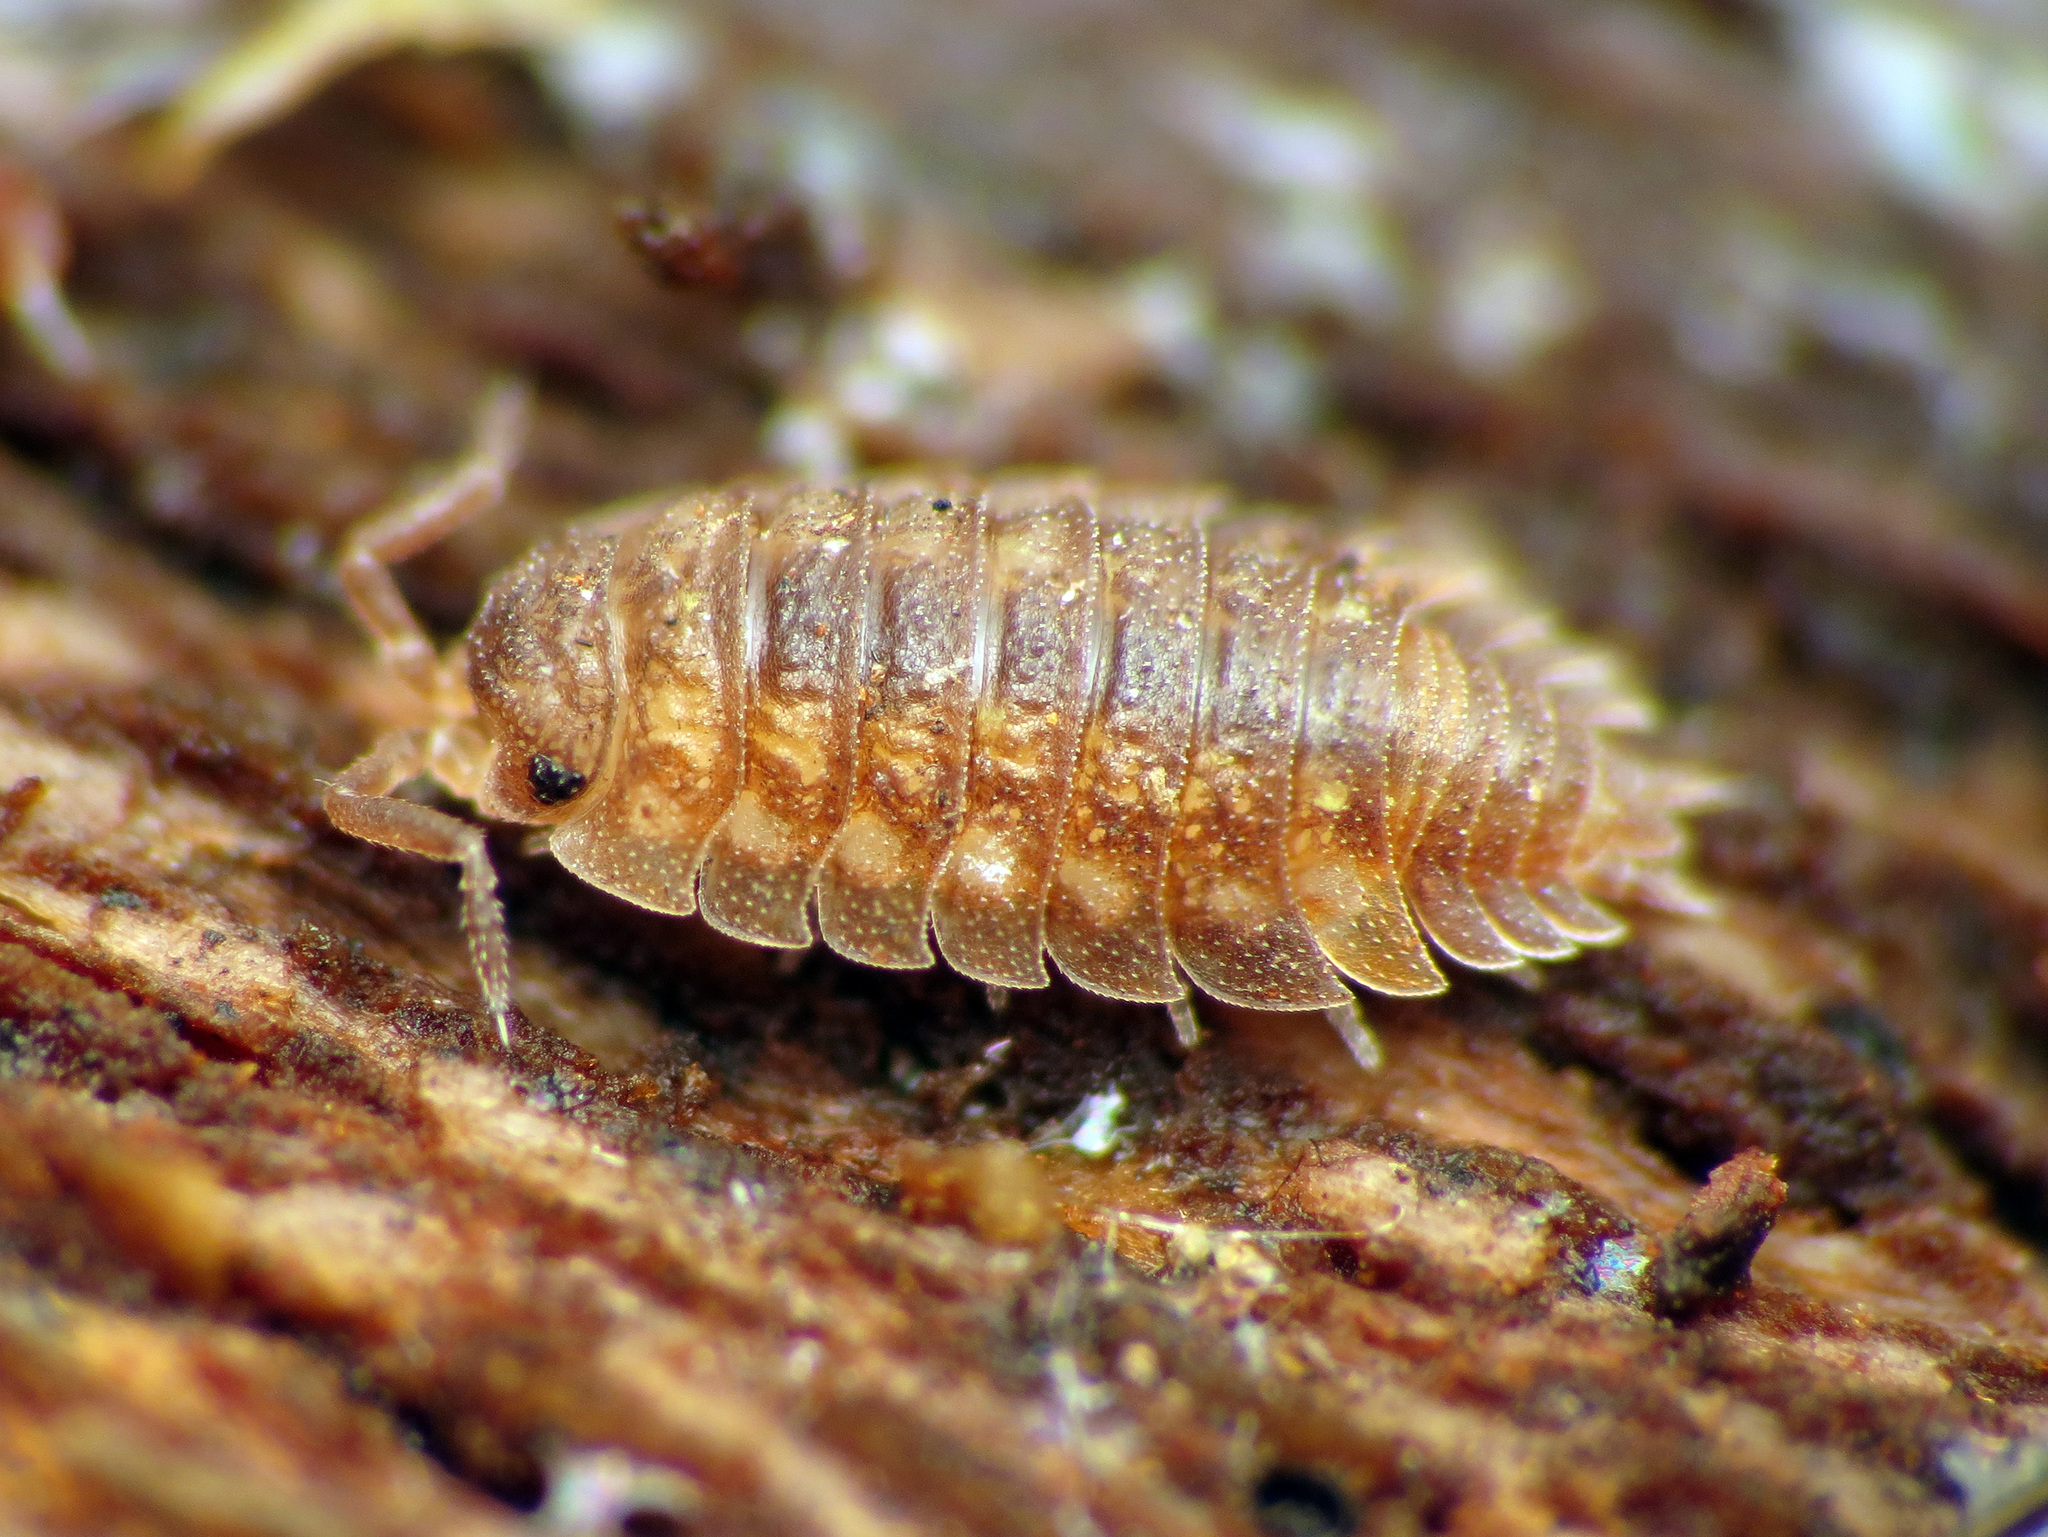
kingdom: Animalia
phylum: Arthropoda
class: Malacostraca
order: Isopoda
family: Oniscidae
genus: Oniscus
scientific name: Oniscus asellus
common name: Common shiny woodlouse
